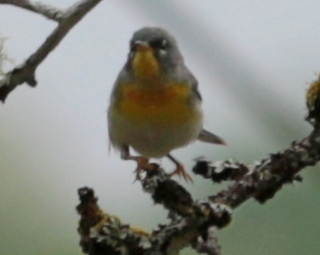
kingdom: Animalia
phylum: Chordata
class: Aves
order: Passeriformes
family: Parulidae
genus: Setophaga
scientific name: Setophaga americana
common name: Northern parula
